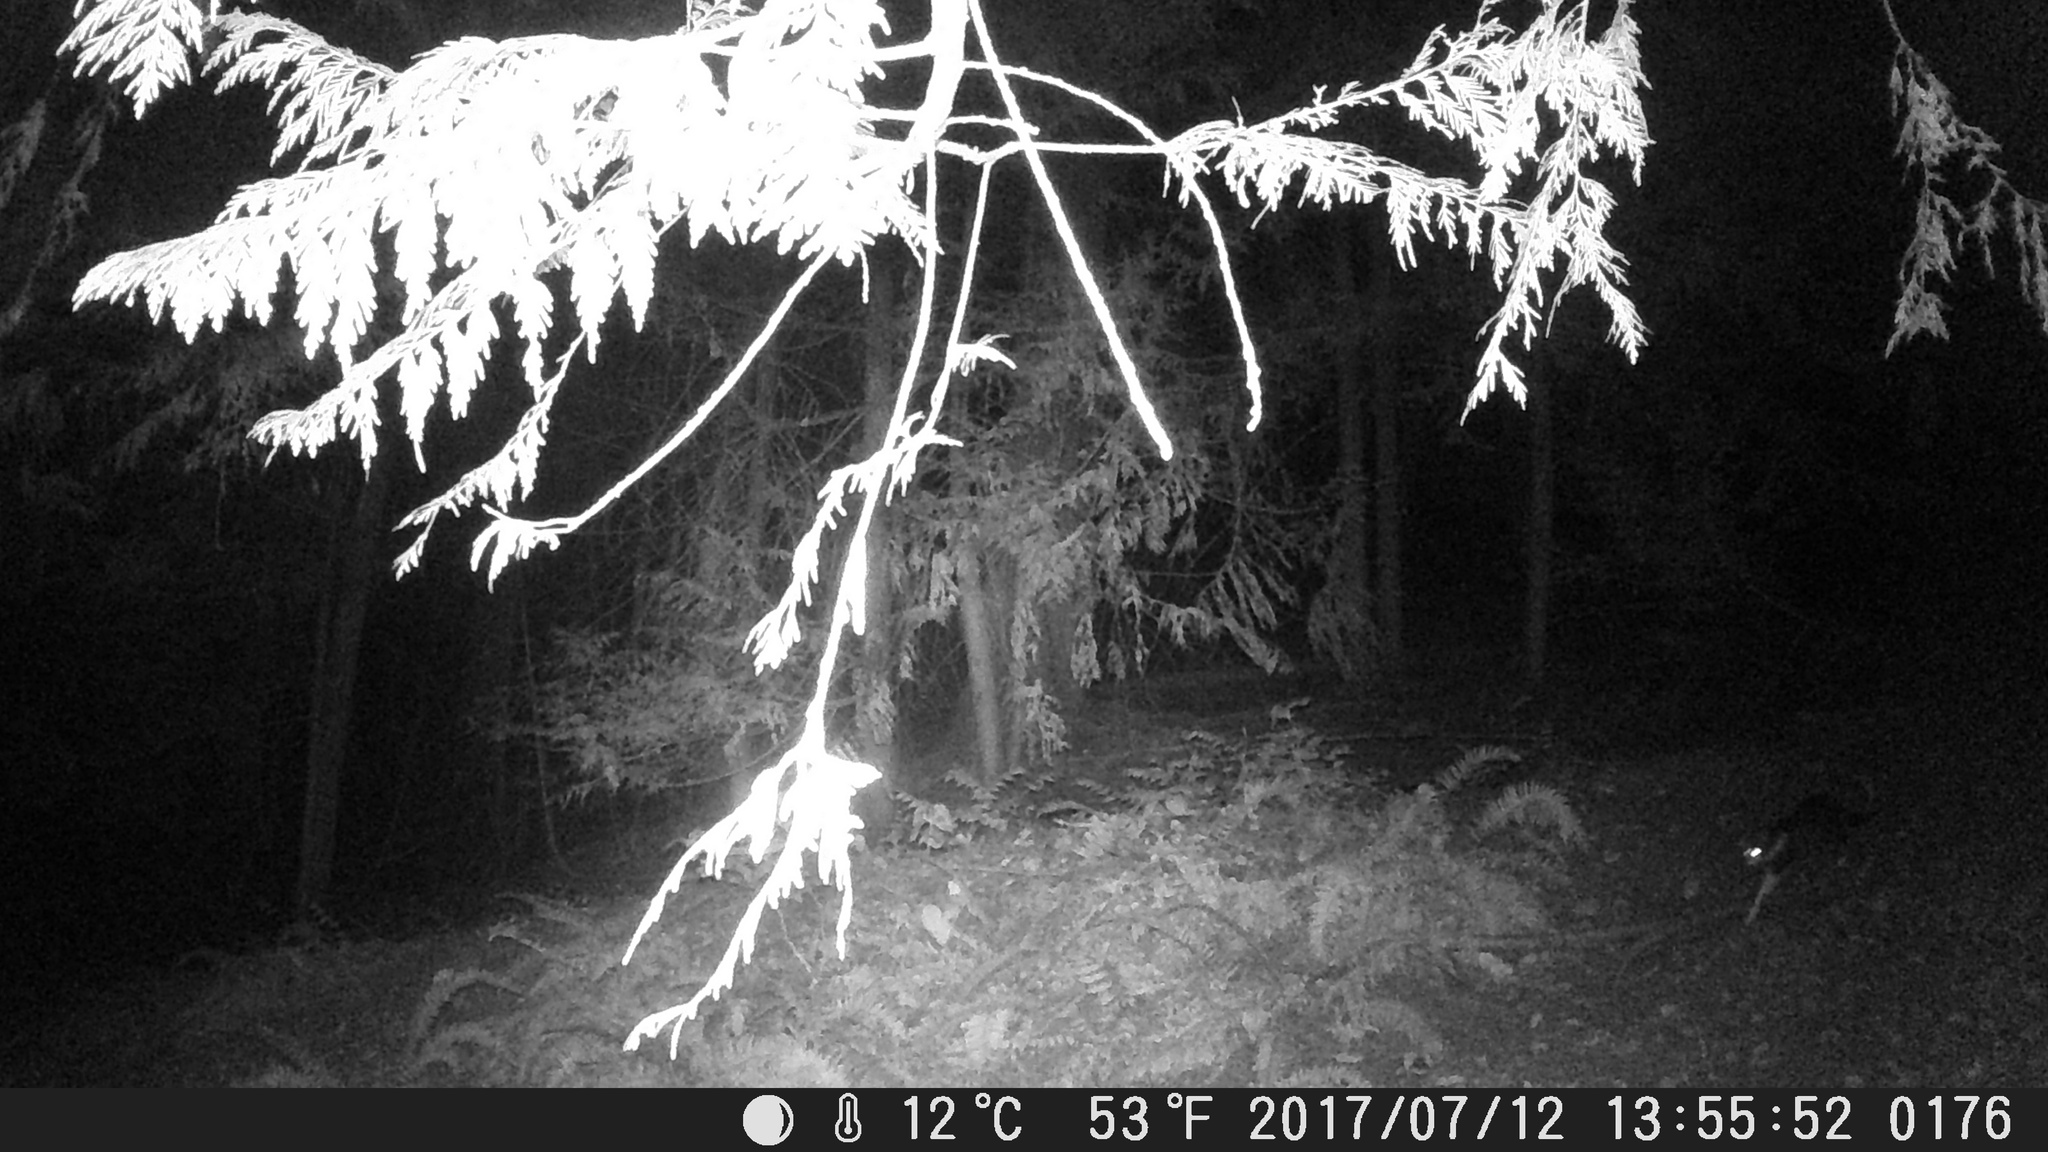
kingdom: Animalia
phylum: Chordata
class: Mammalia
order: Carnivora
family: Felidae
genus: Felis
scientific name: Felis catus
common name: Domestic cat
